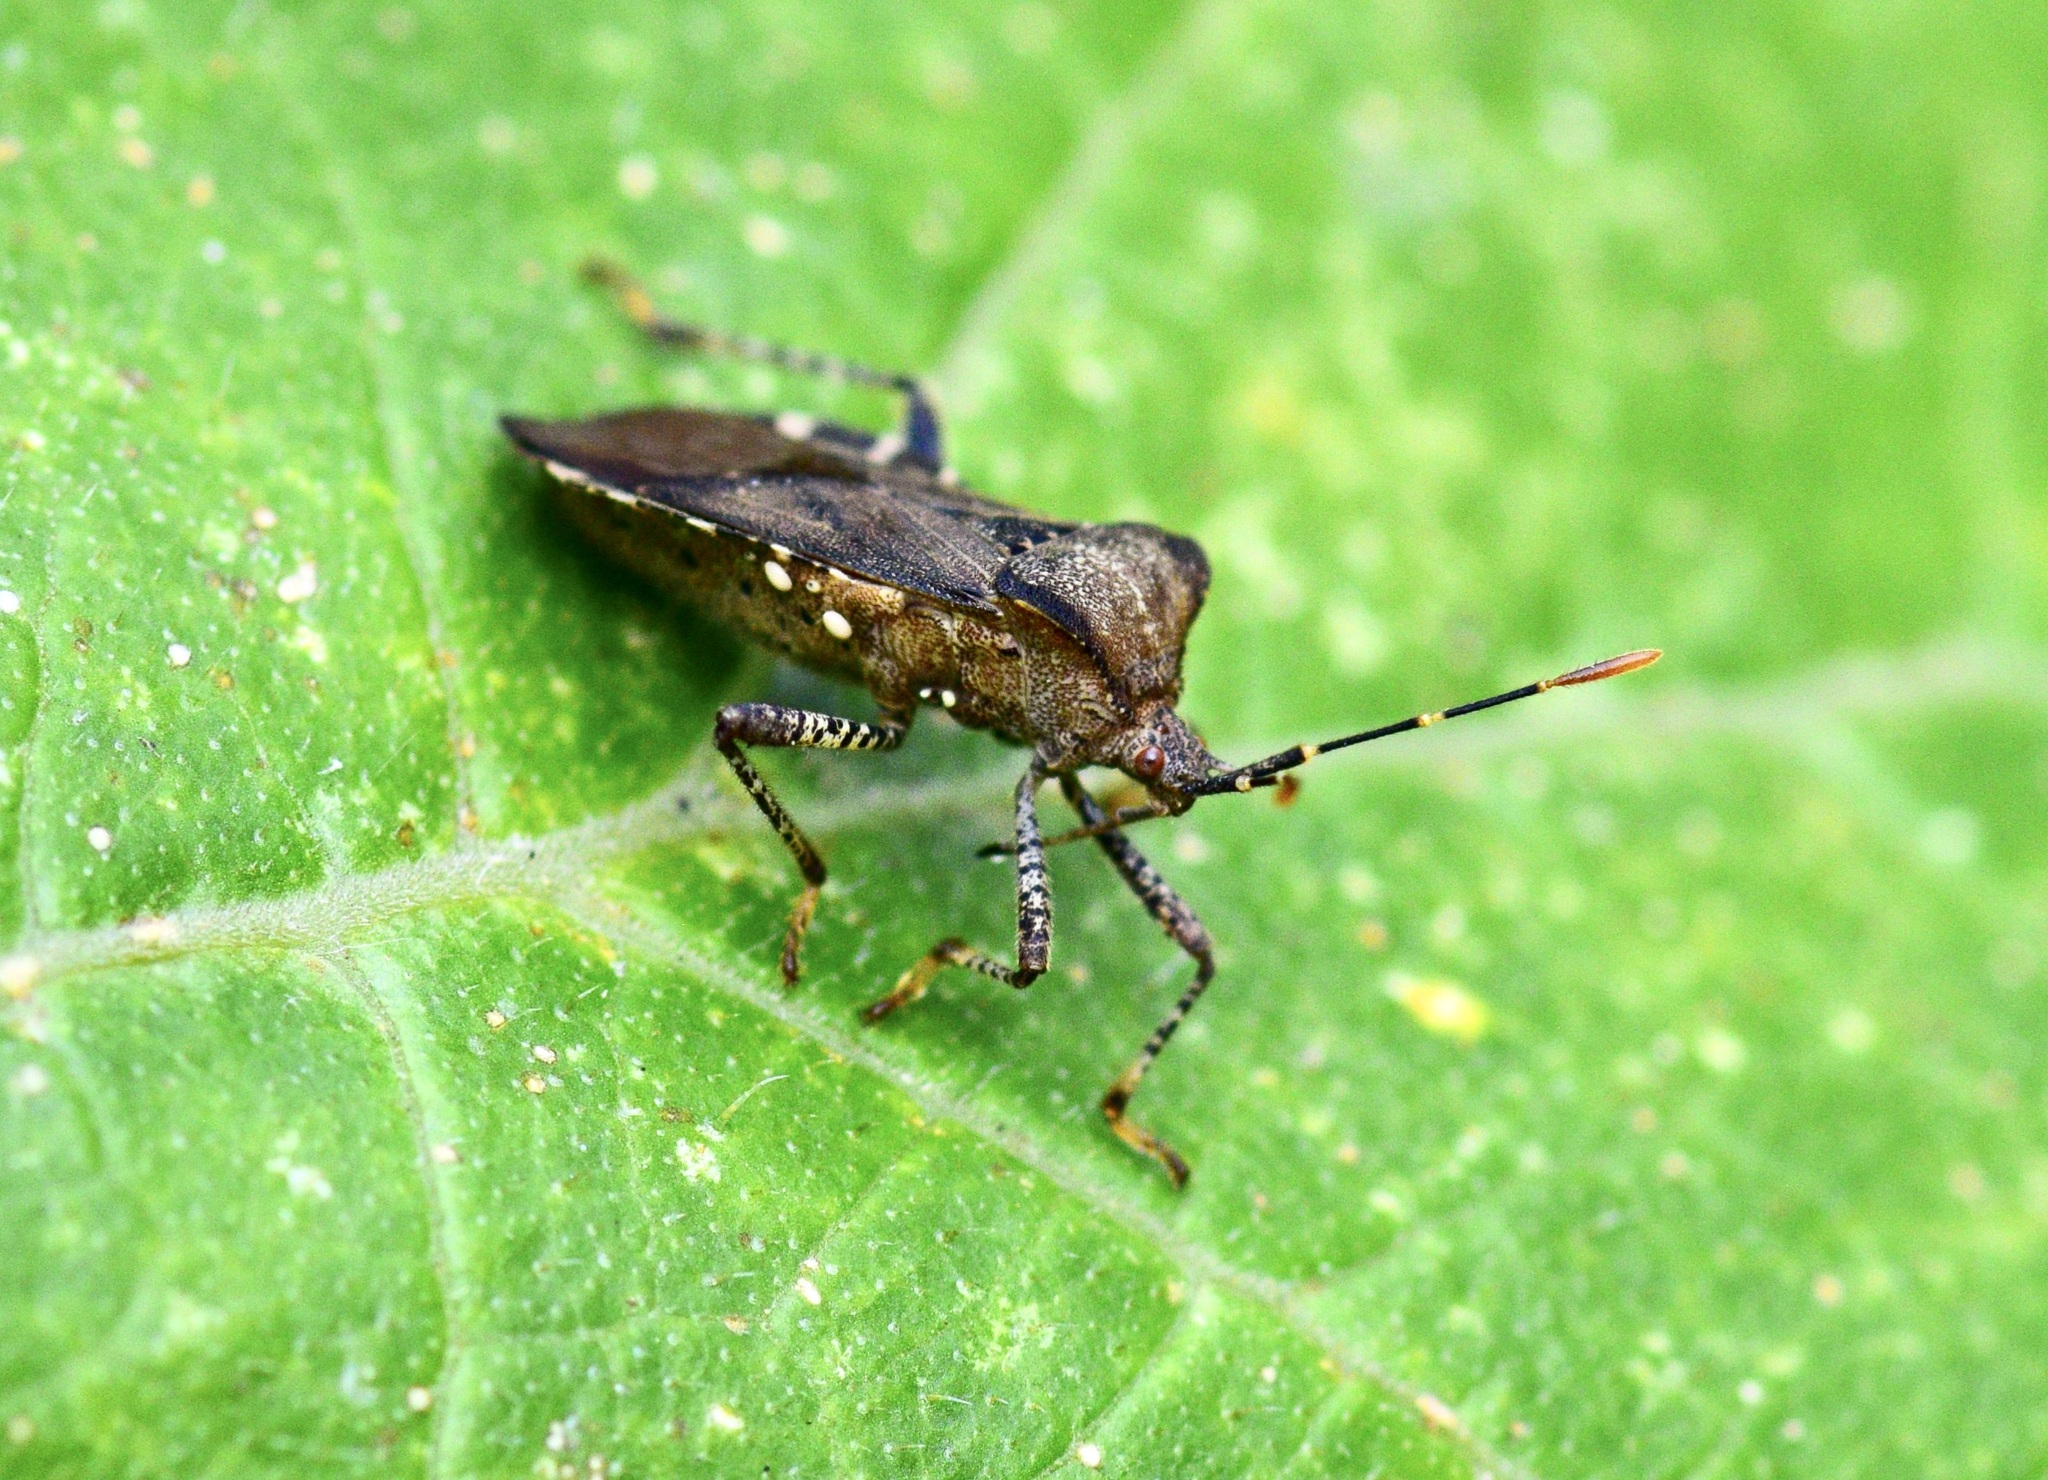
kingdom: Animalia
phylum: Arthropoda
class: Insecta
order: Hemiptera
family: Coreidae
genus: Anasa
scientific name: Anasa armigera
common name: Horned squash bug
